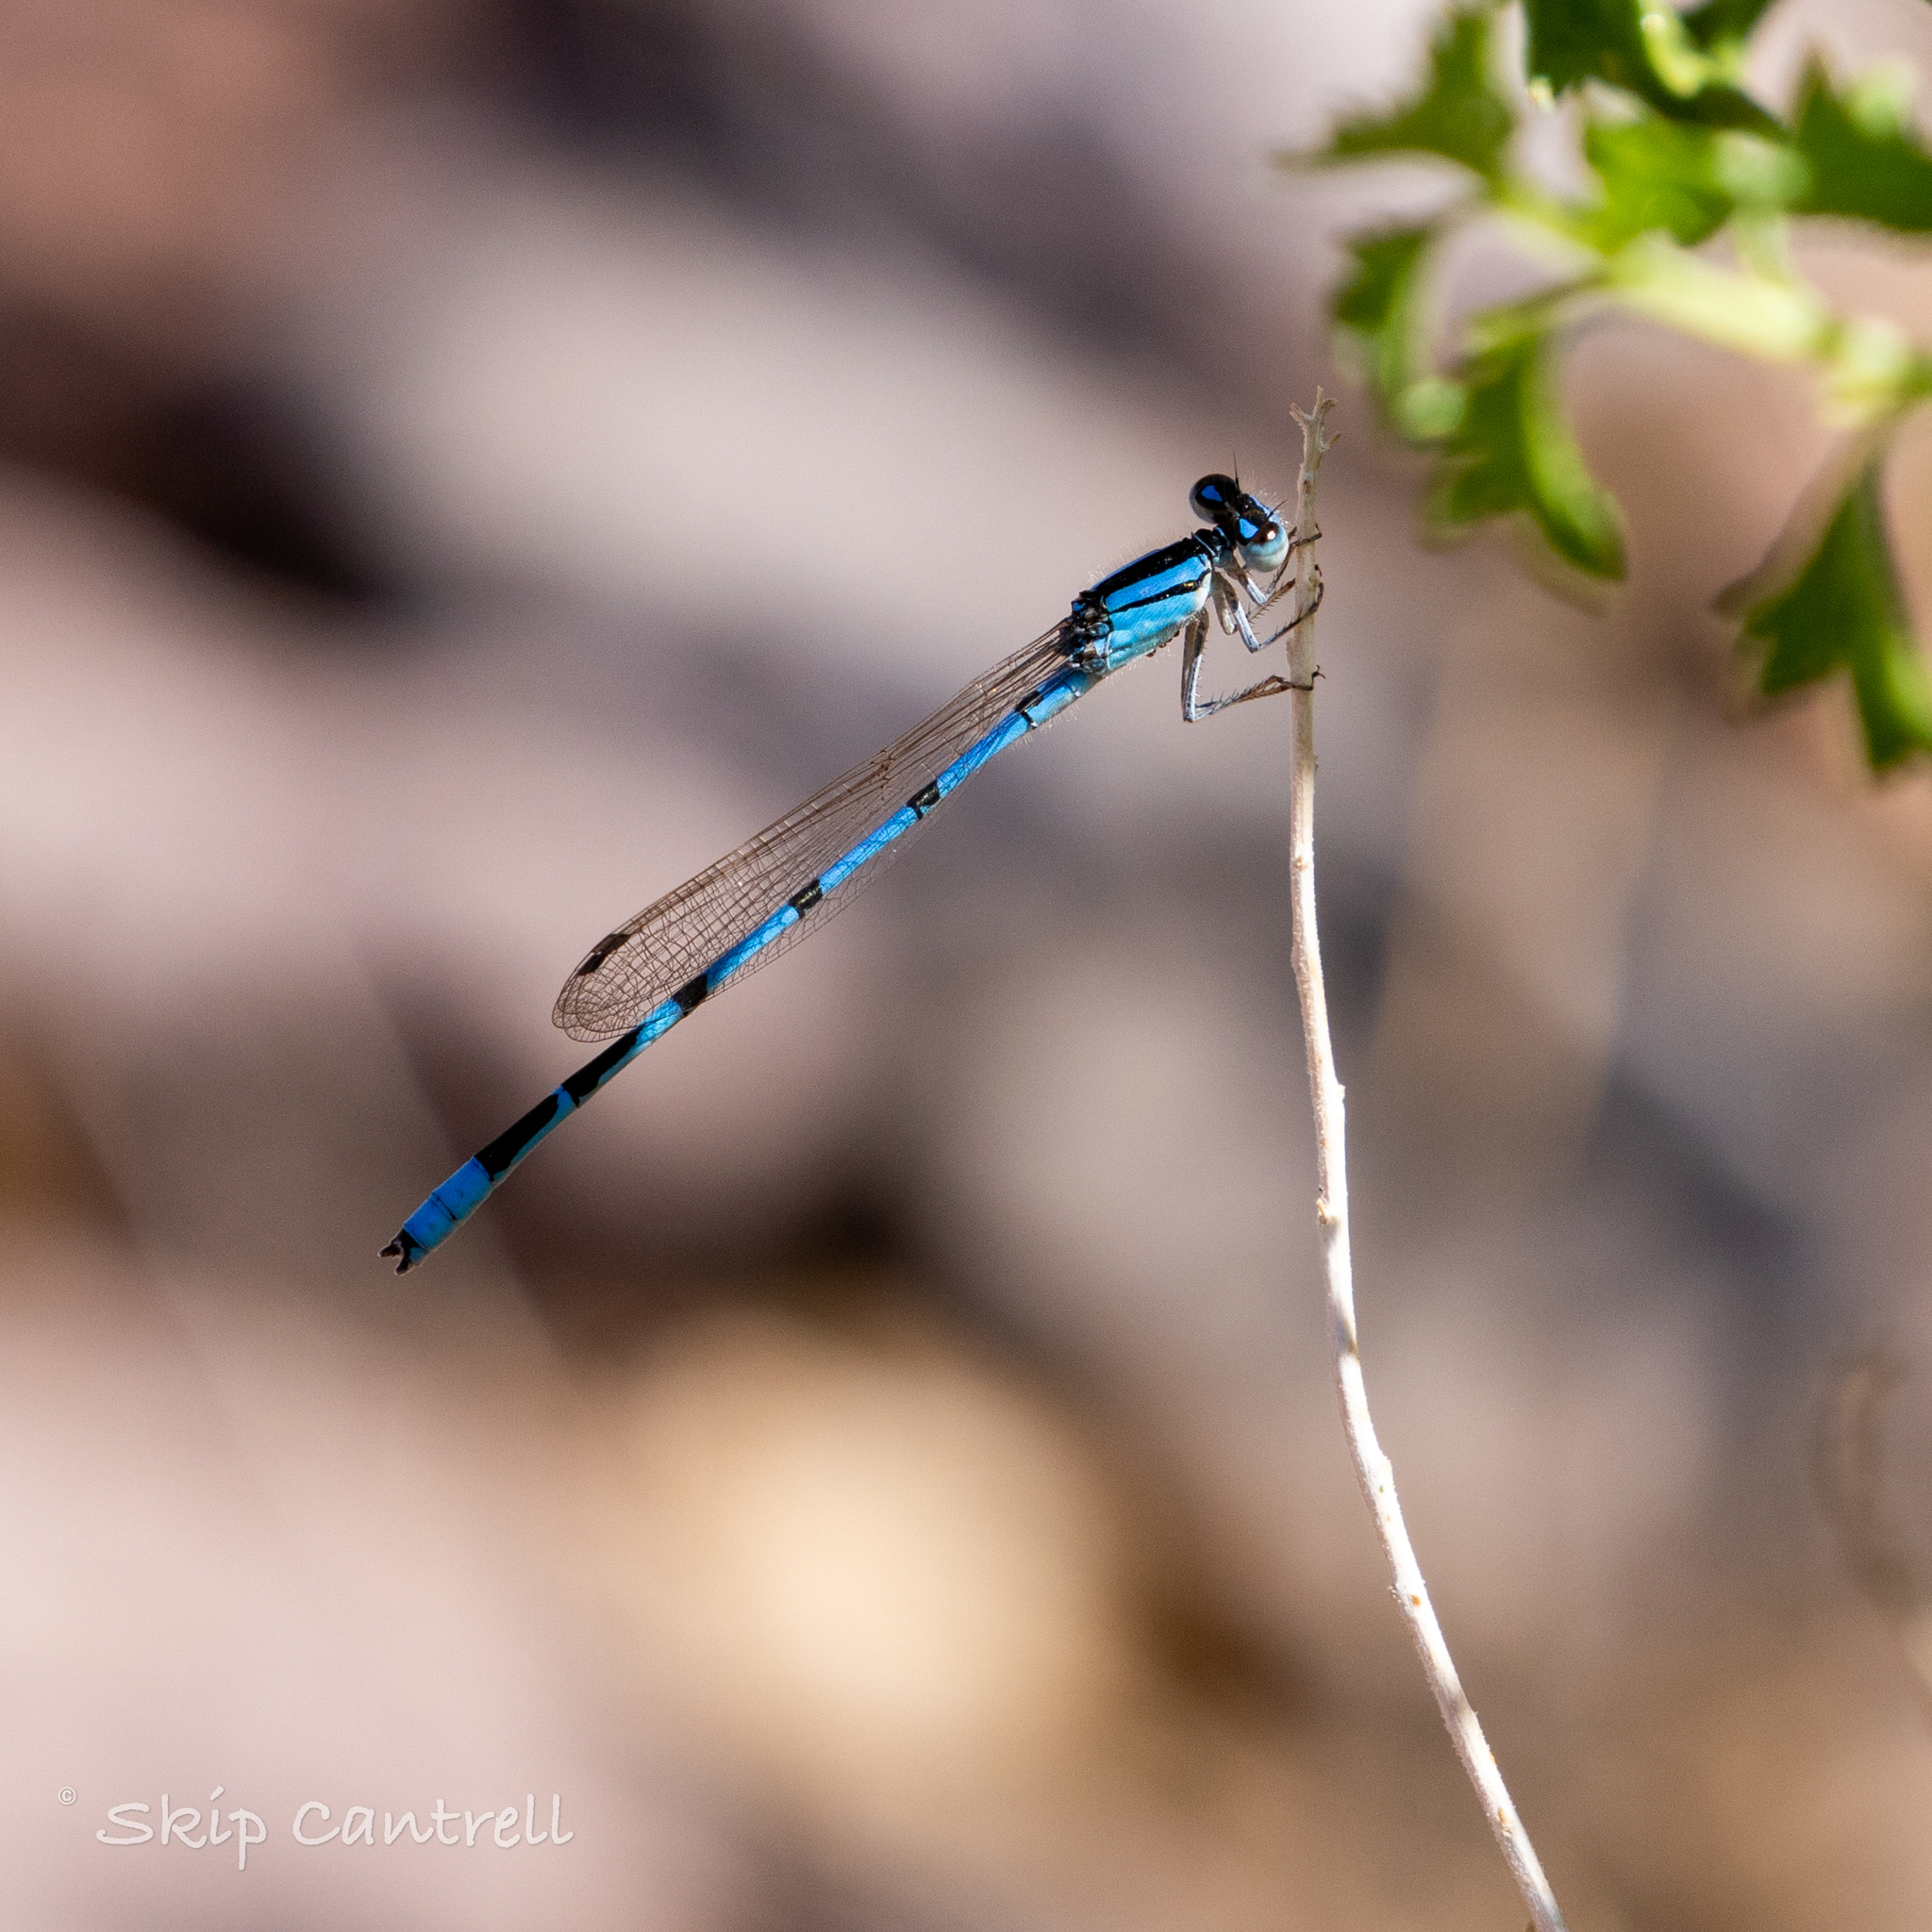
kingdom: Animalia
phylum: Arthropoda
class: Insecta
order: Odonata
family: Coenagrionidae
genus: Enallagma
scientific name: Enallagma civile
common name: Damselfly
